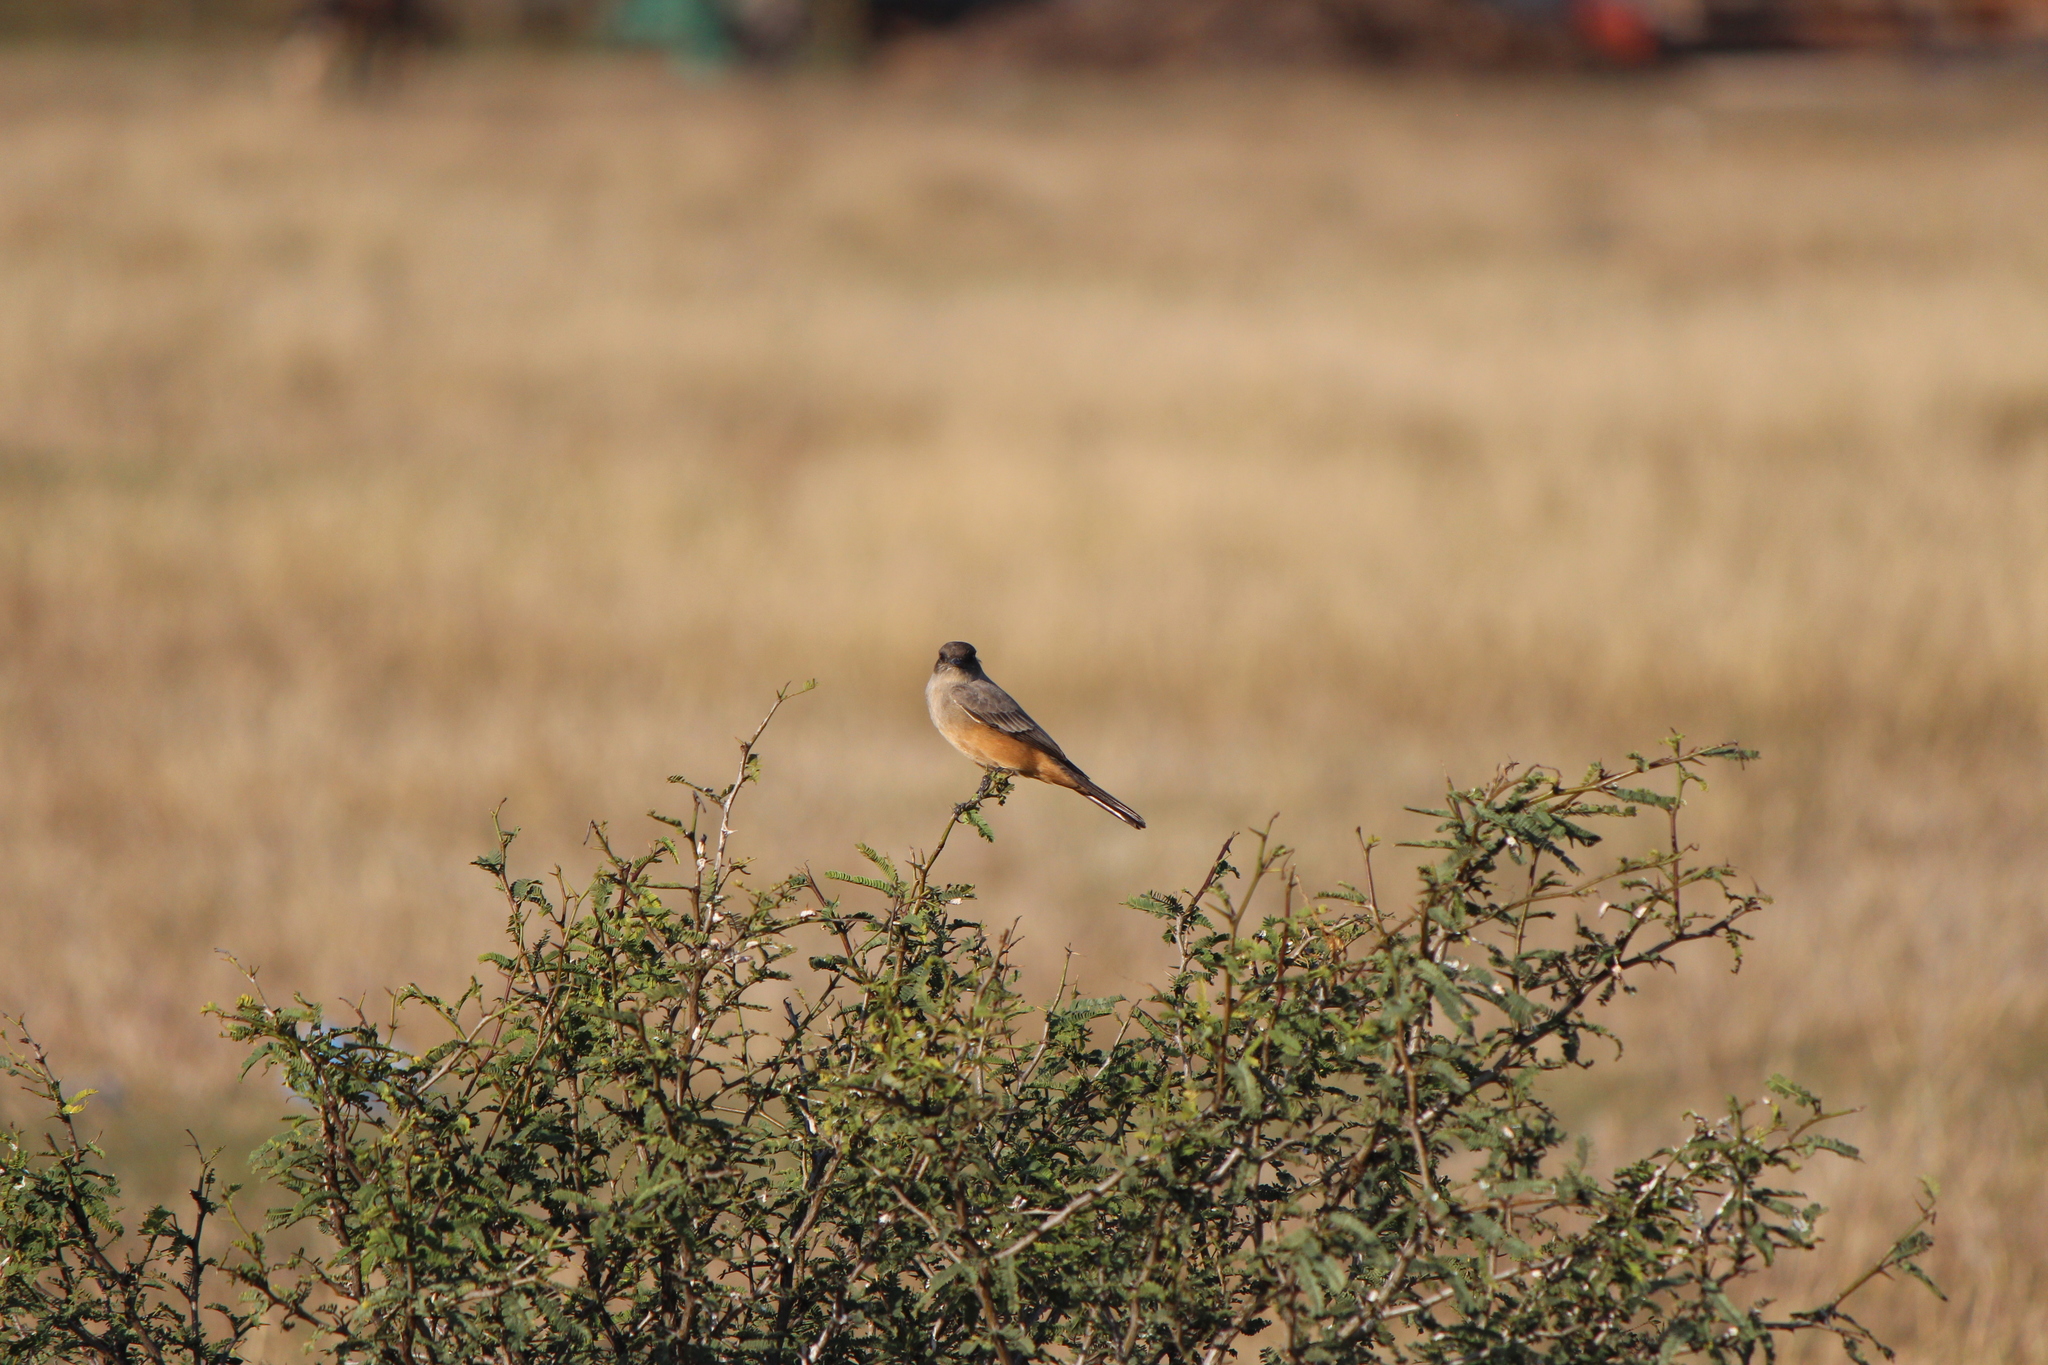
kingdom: Animalia
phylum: Chordata
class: Aves
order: Passeriformes
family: Tyrannidae
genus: Sayornis
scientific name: Sayornis saya
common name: Say's phoebe
